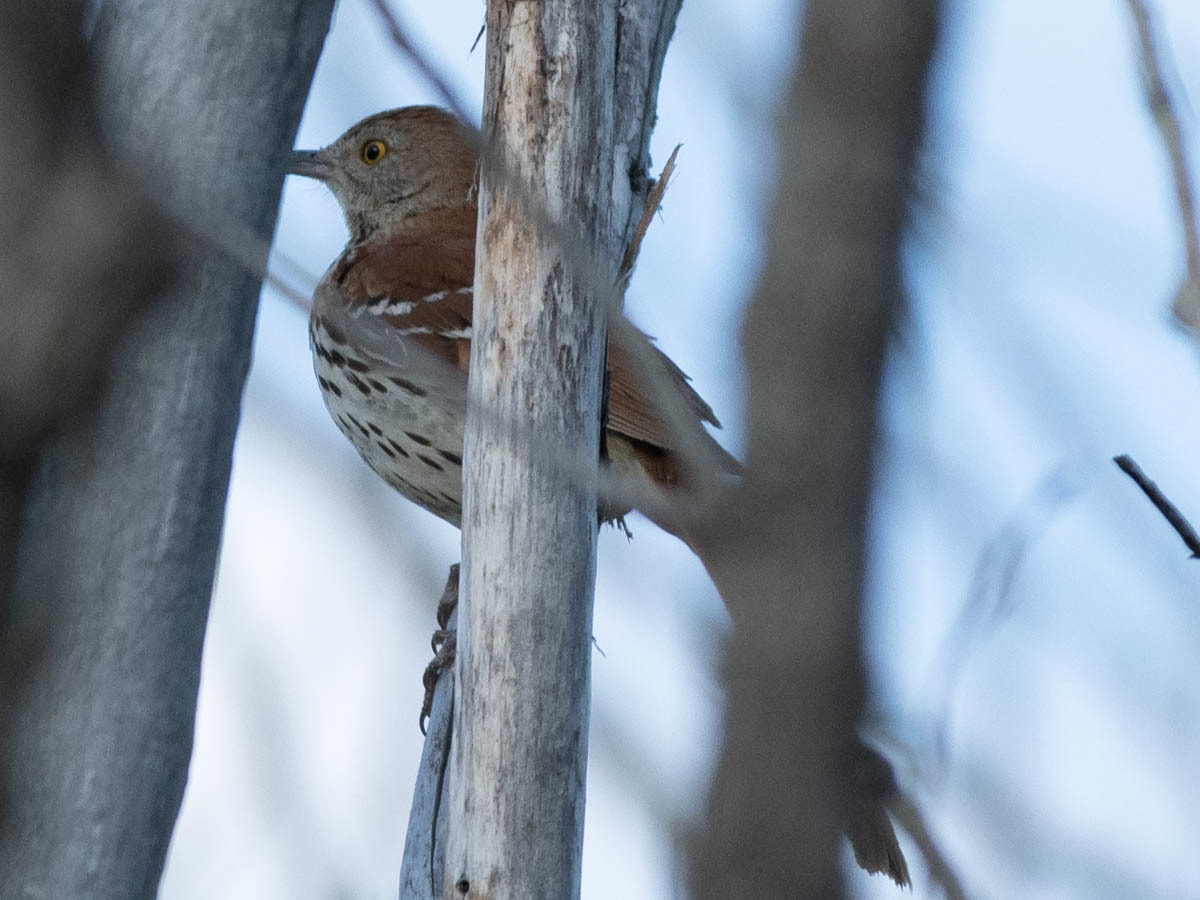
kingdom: Animalia
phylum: Chordata
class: Aves
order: Passeriformes
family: Mimidae
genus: Toxostoma
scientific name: Toxostoma rufum
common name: Brown thrasher
